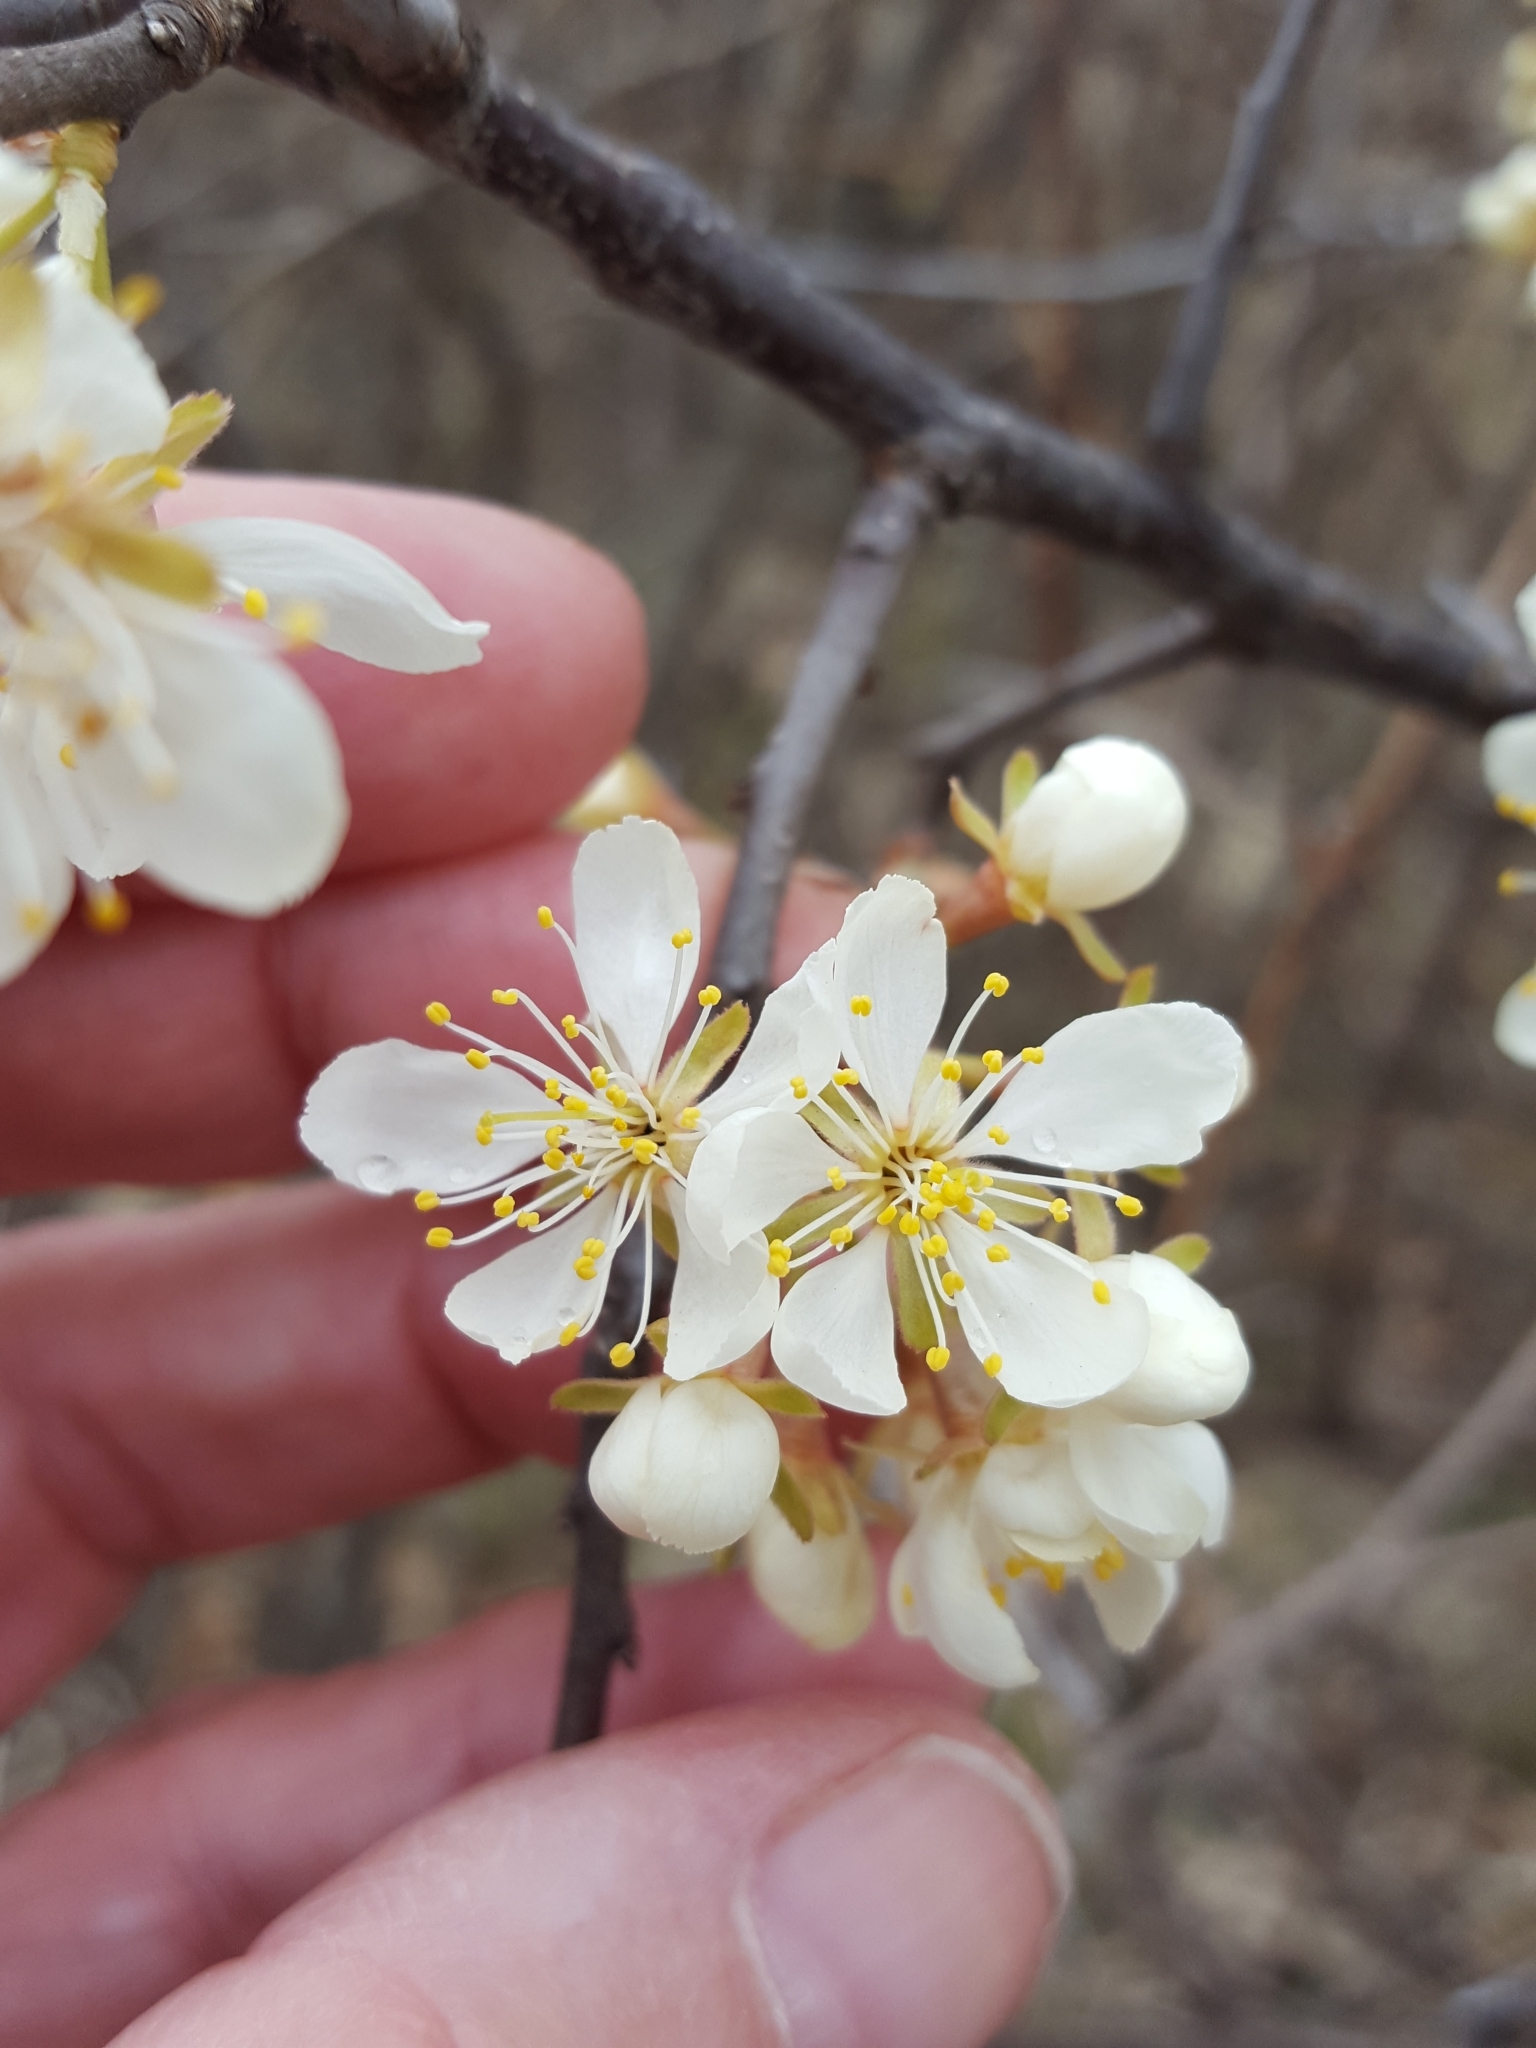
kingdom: Plantae
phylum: Tracheophyta
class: Magnoliopsida
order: Rosales
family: Rosaceae
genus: Prunus
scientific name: Prunus americana
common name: American plum
